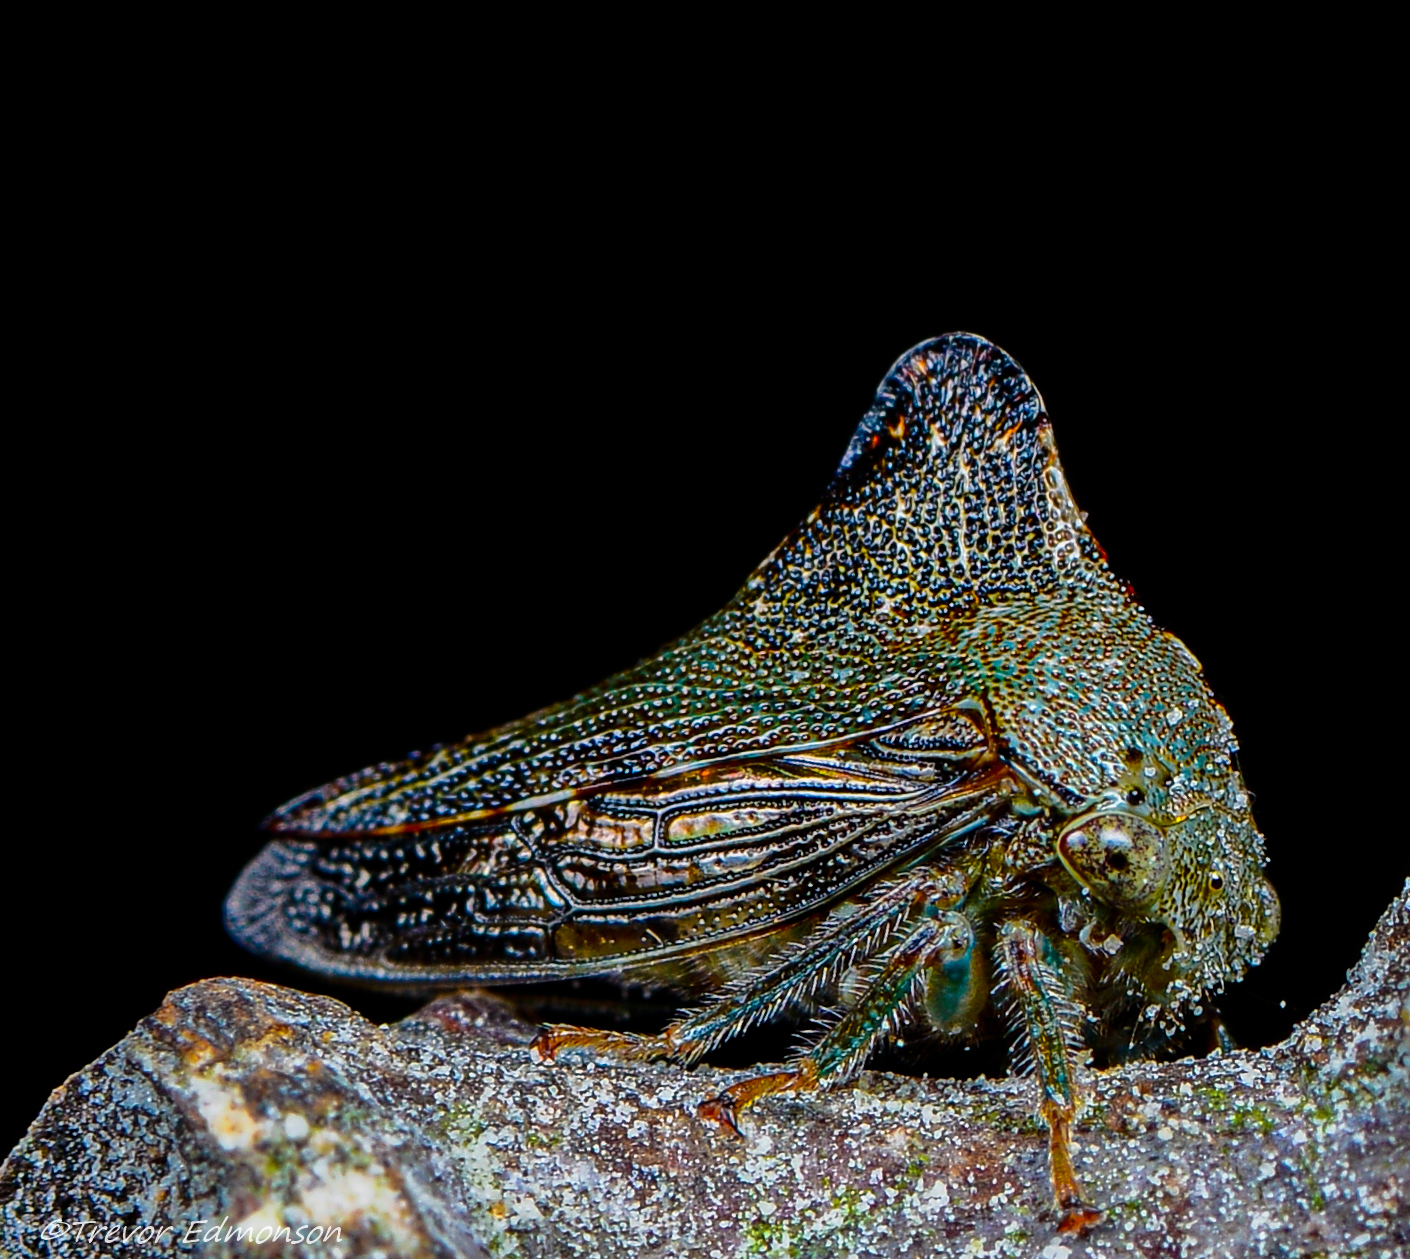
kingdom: Animalia
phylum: Arthropoda
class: Insecta
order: Hemiptera
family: Membracidae
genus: Telamona
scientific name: Telamona tarda
